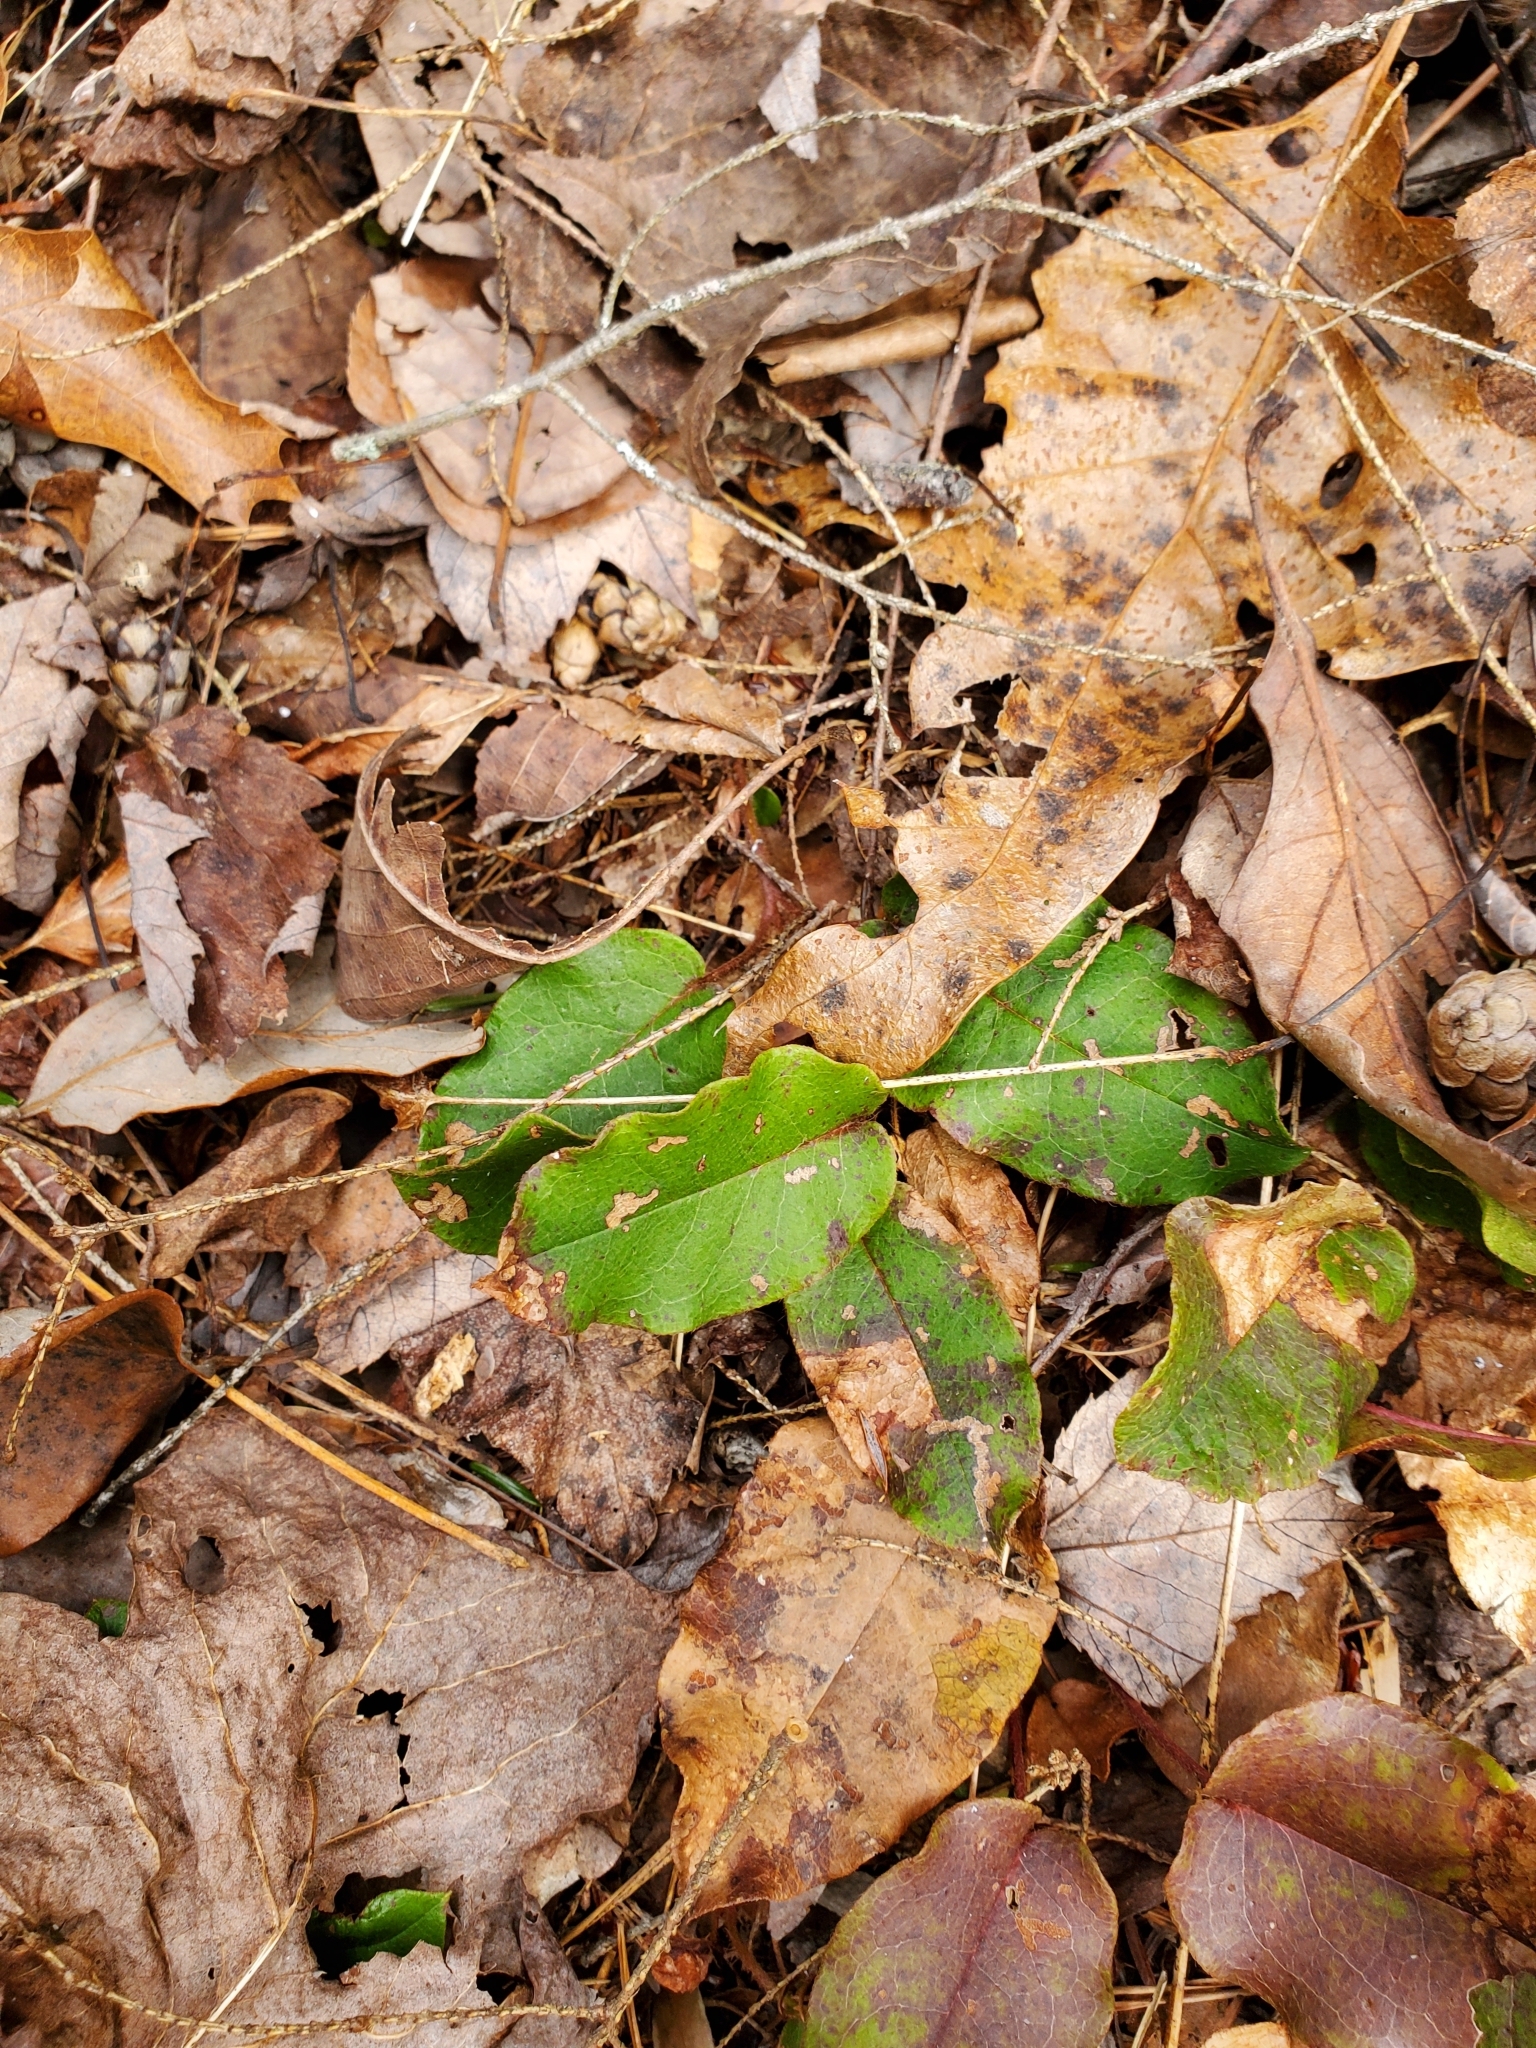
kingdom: Plantae
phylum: Tracheophyta
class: Magnoliopsida
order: Ericales
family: Ericaceae
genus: Epigaea
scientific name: Epigaea repens
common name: Gravelroot
